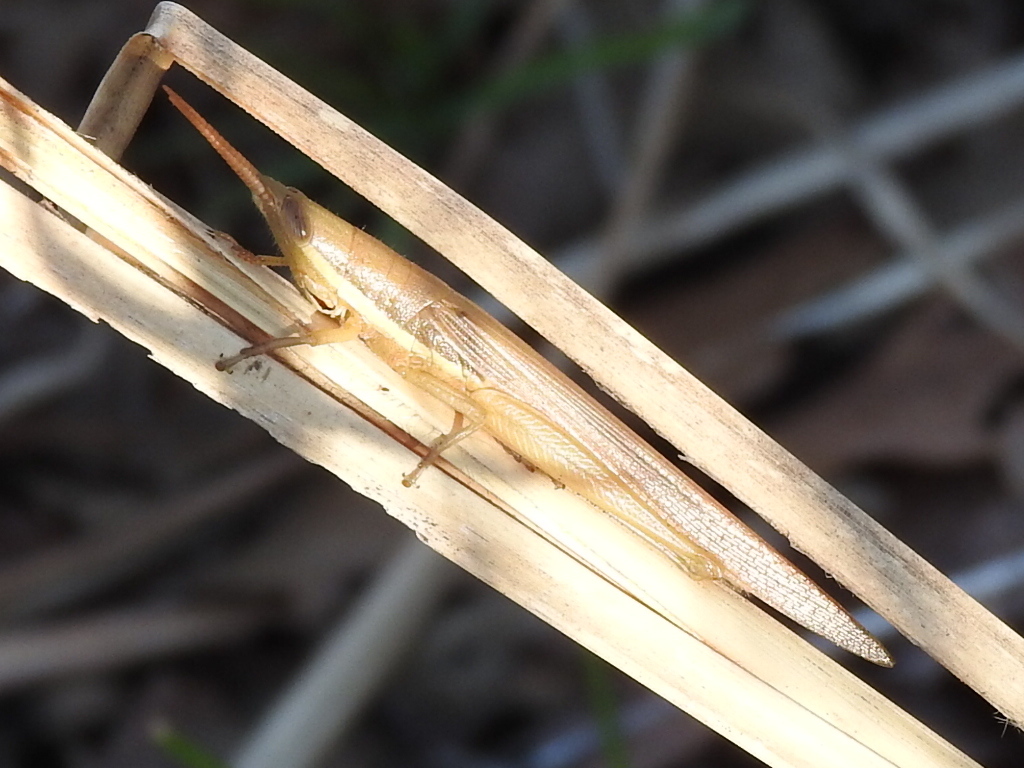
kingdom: Animalia
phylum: Arthropoda
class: Insecta
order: Orthoptera
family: Acrididae
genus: Leptysma
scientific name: Leptysma marginicollis
